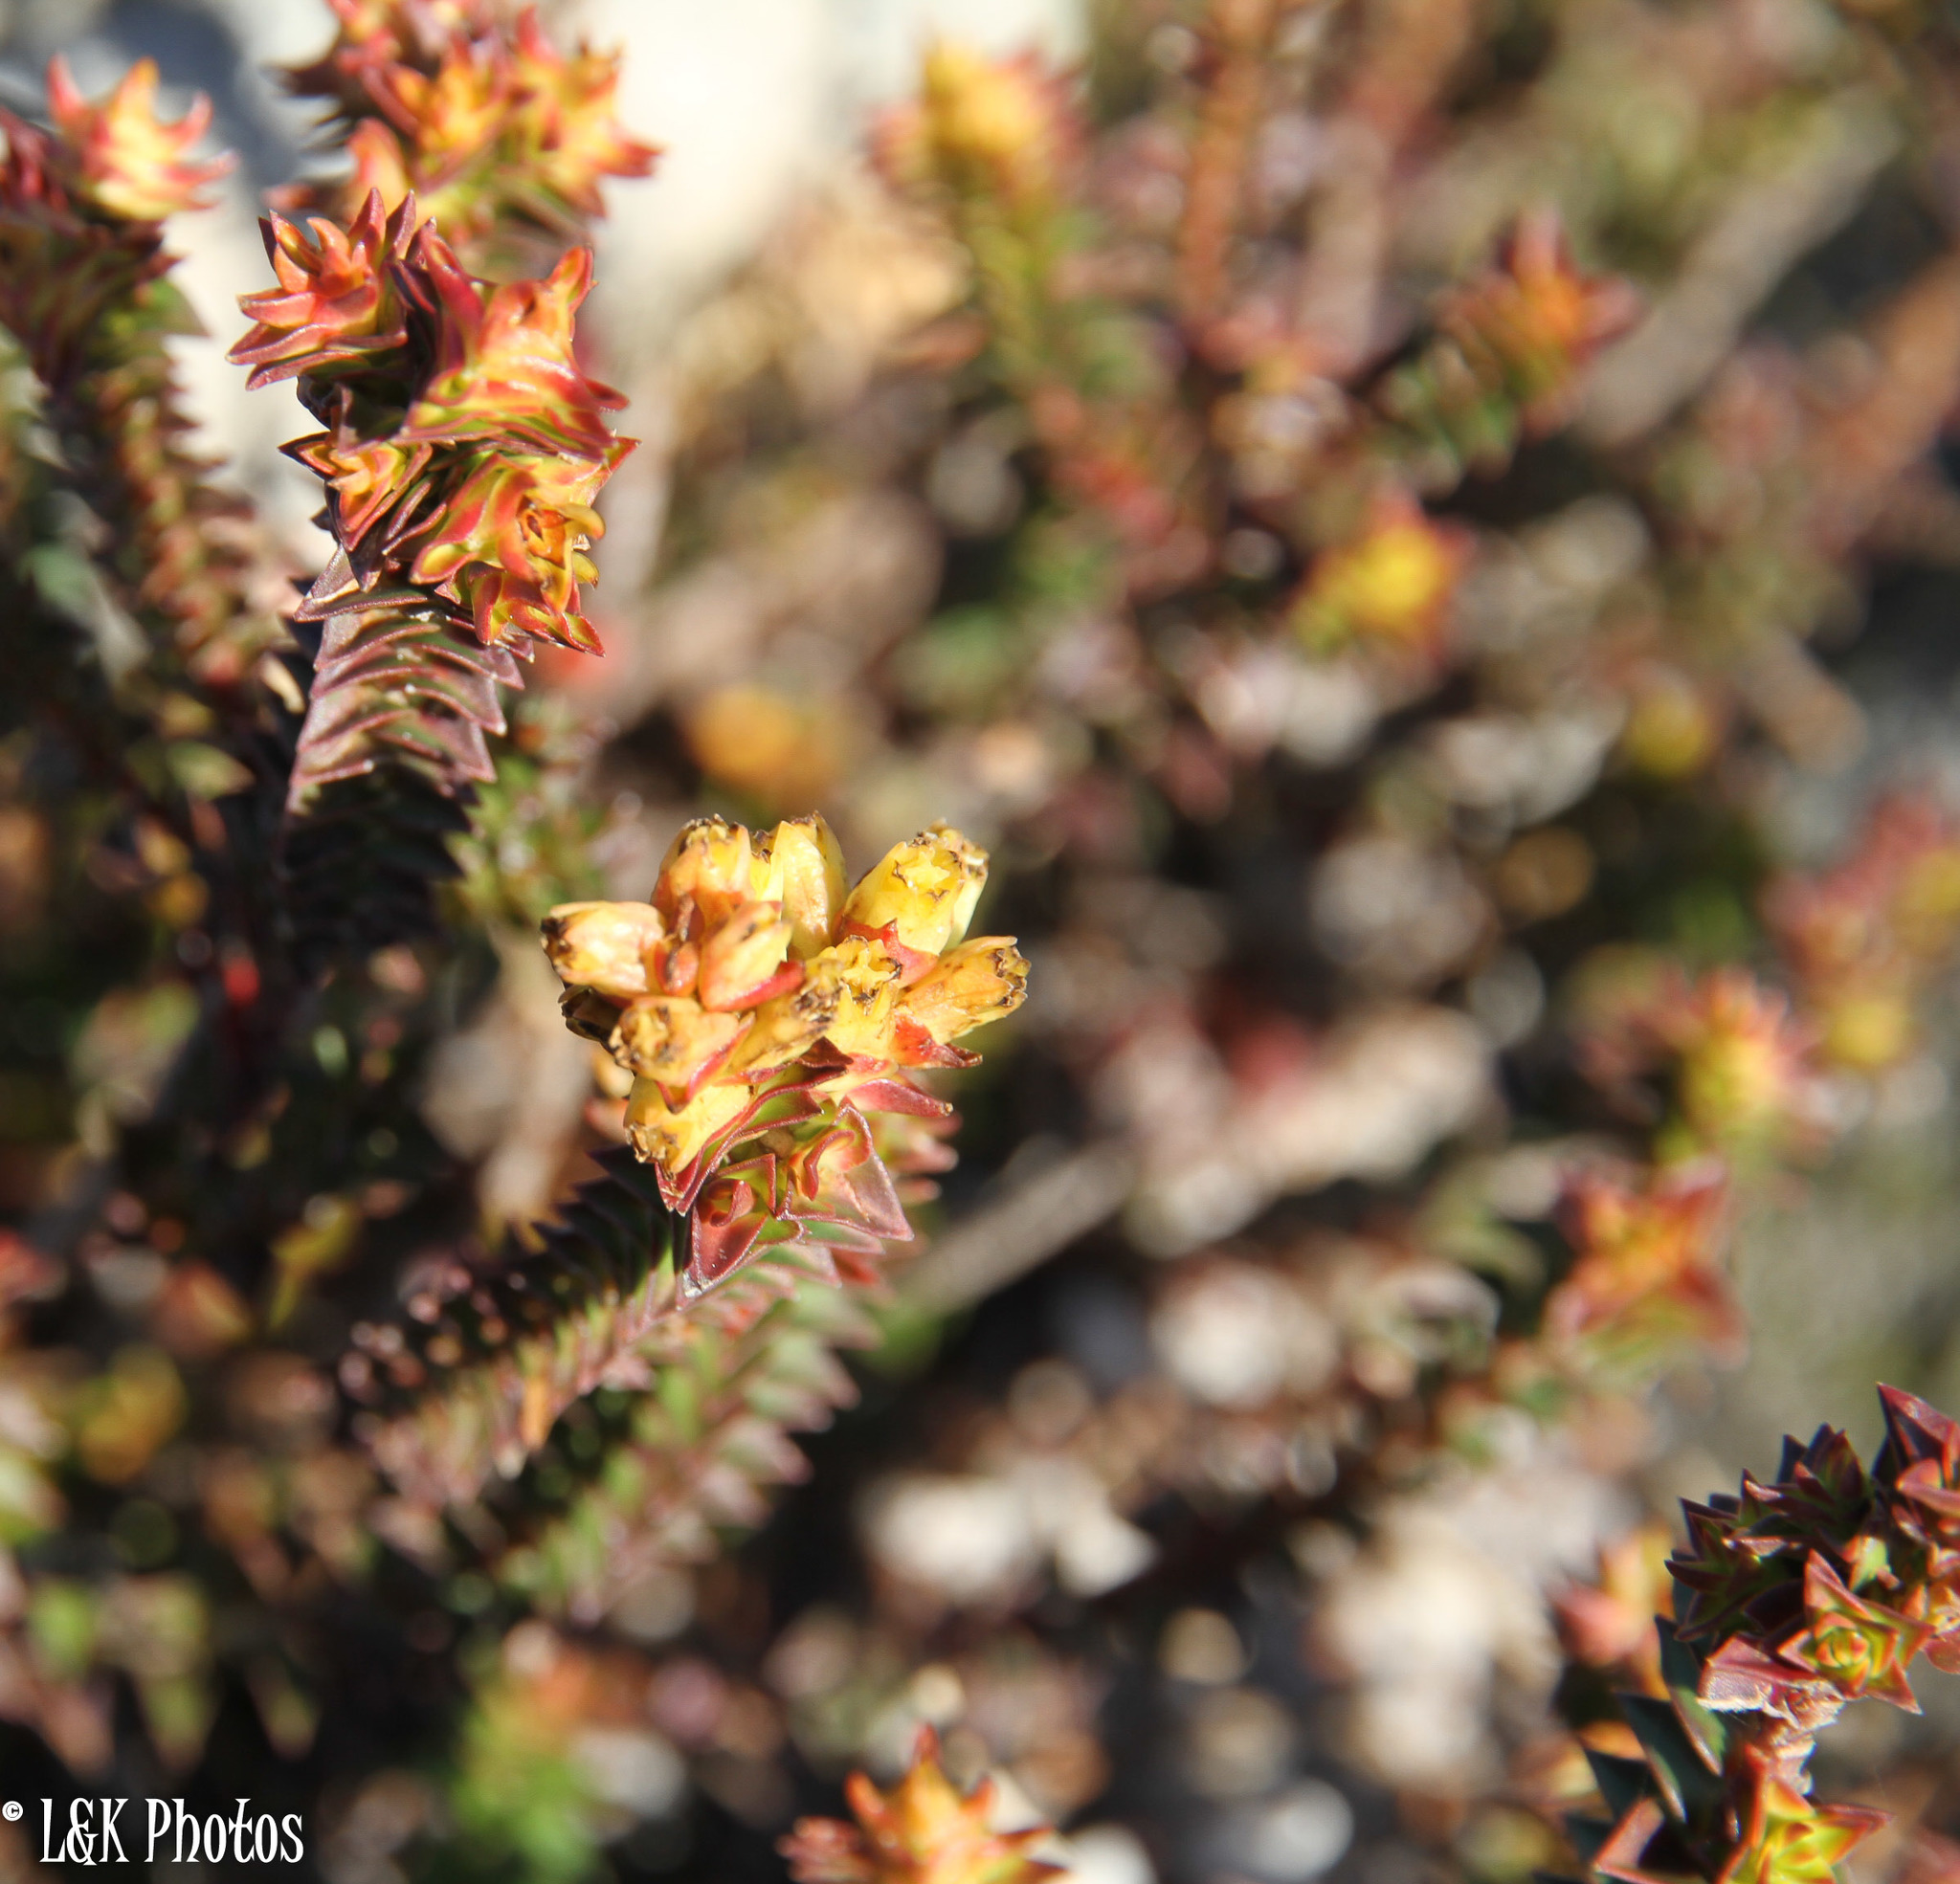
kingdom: Plantae
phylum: Tracheophyta
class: Magnoliopsida
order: Myrtales
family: Penaeaceae
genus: Penaea
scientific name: Penaea mucronata
